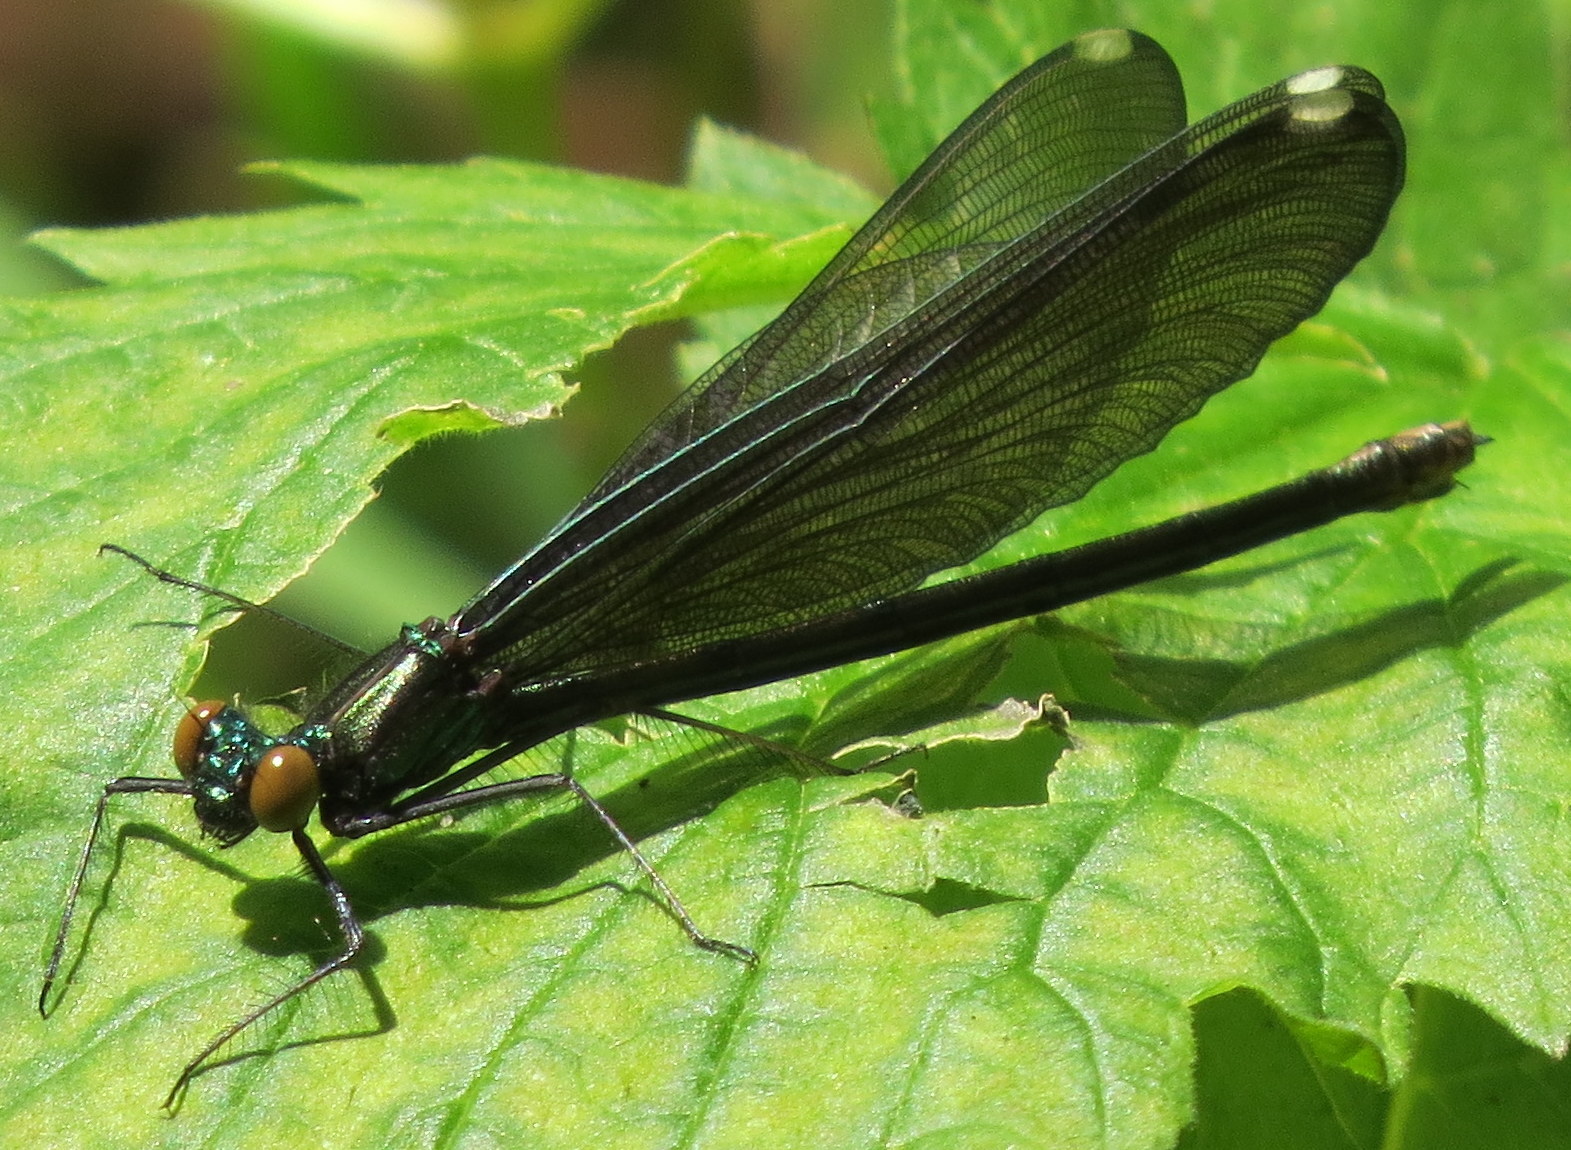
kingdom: Animalia
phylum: Arthropoda
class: Insecta
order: Odonata
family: Calopterygidae
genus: Calopteryx
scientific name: Calopteryx maculata
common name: Ebony jewelwing
